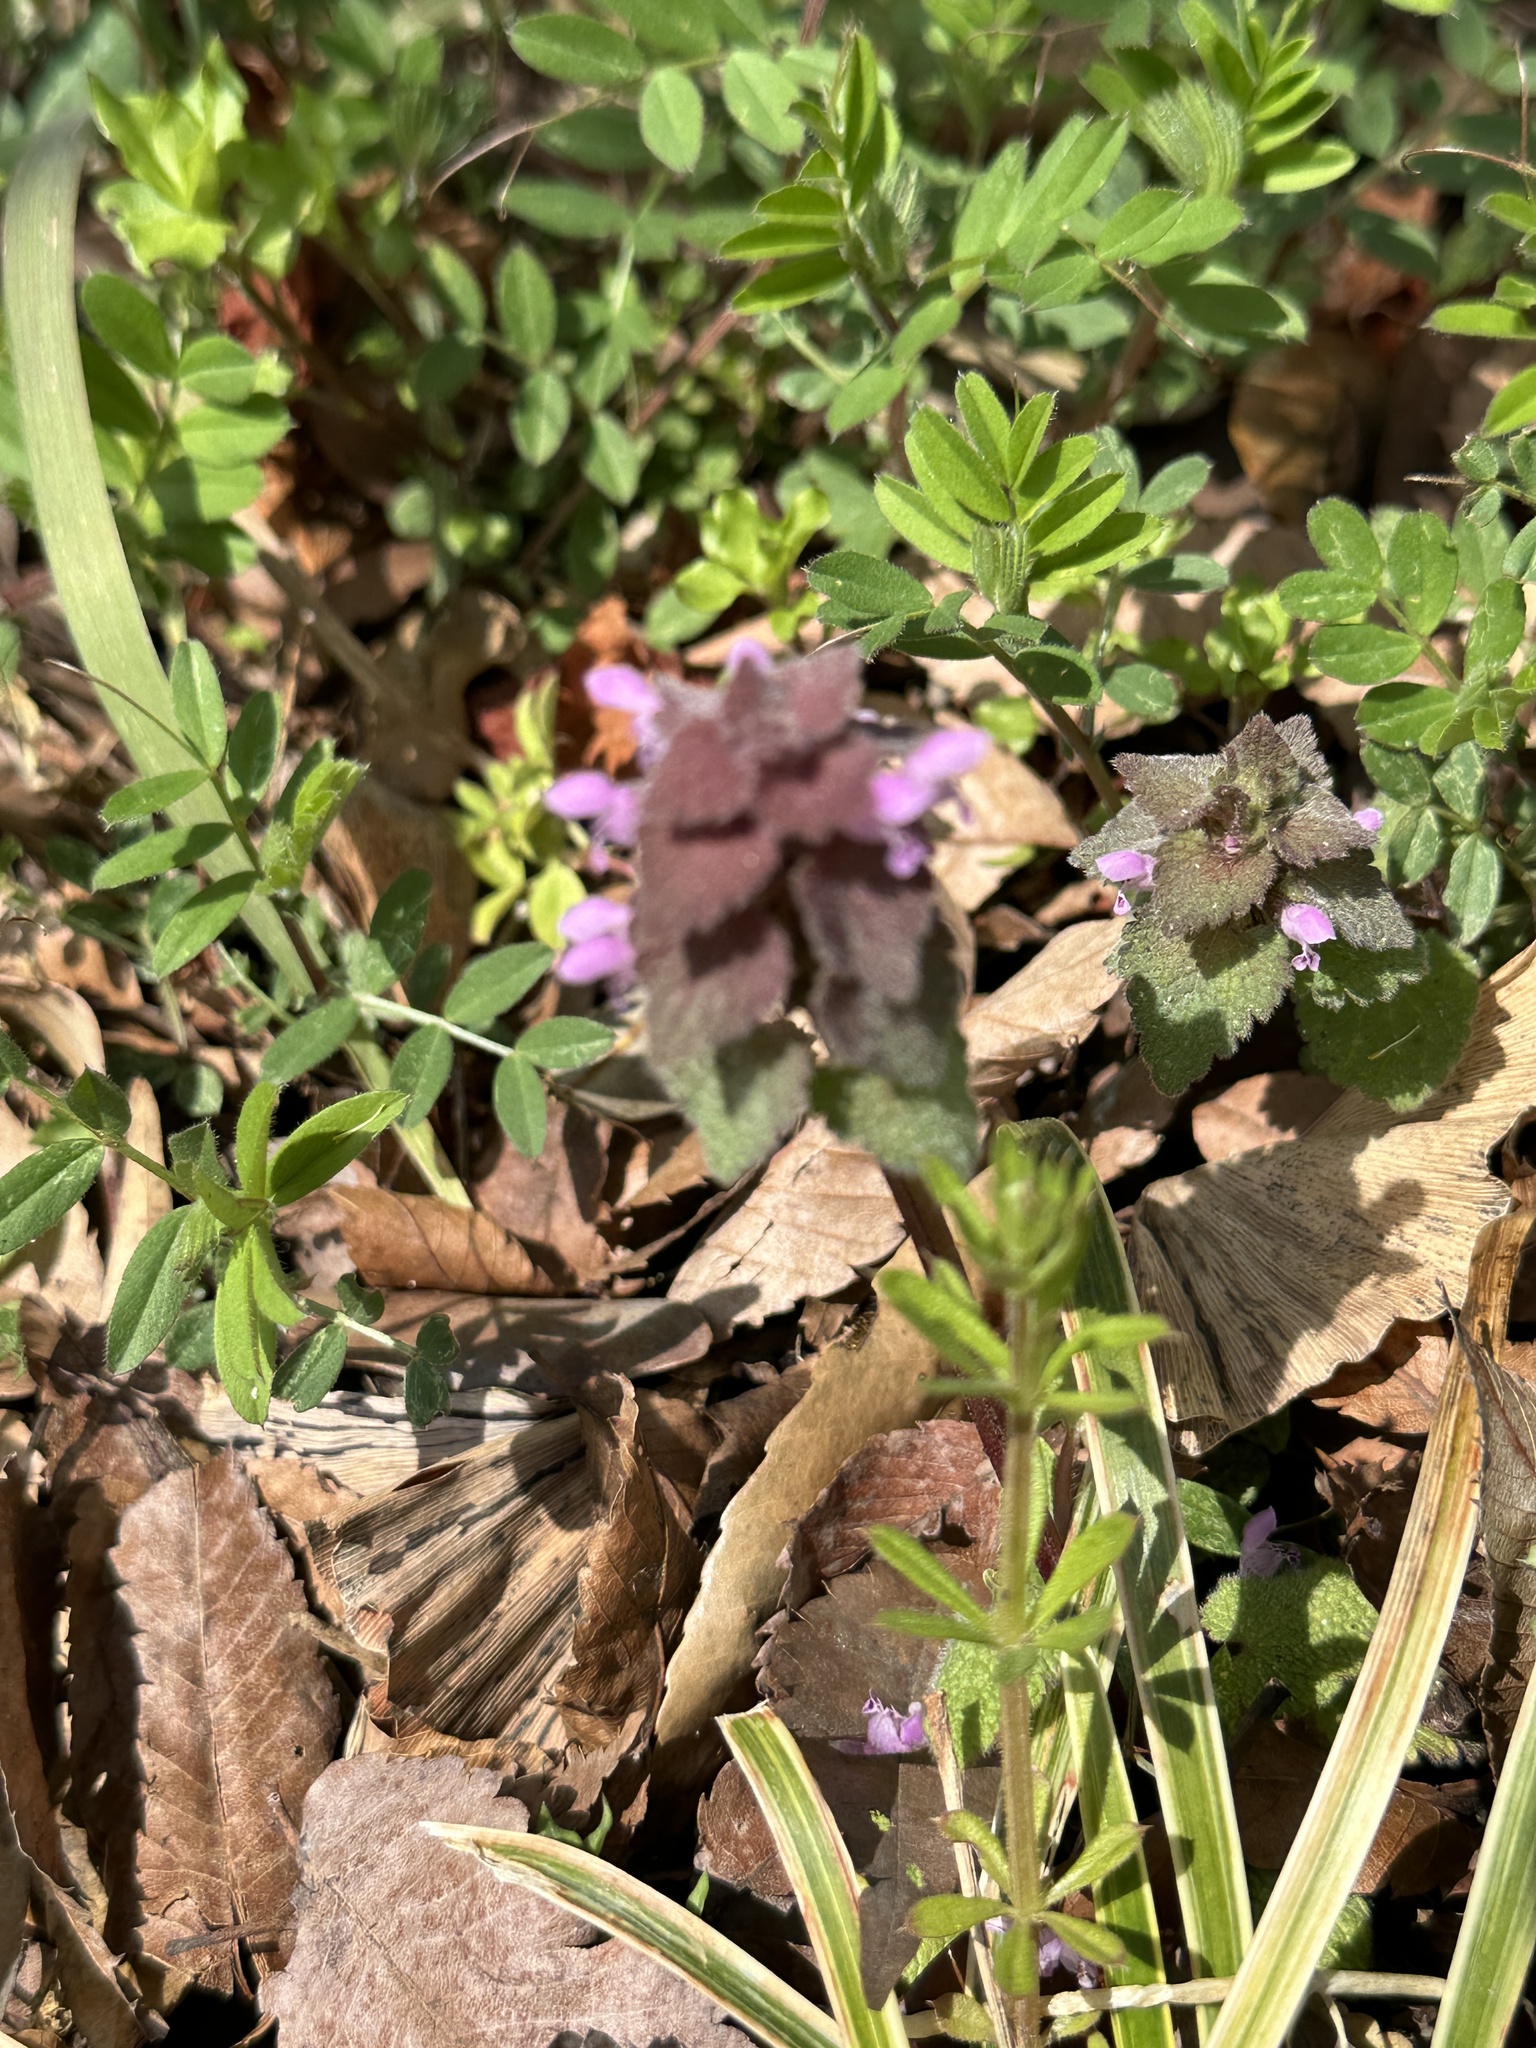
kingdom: Plantae
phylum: Tracheophyta
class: Magnoliopsida
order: Lamiales
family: Lamiaceae
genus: Lamium
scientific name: Lamium purpureum
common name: Red dead-nettle
